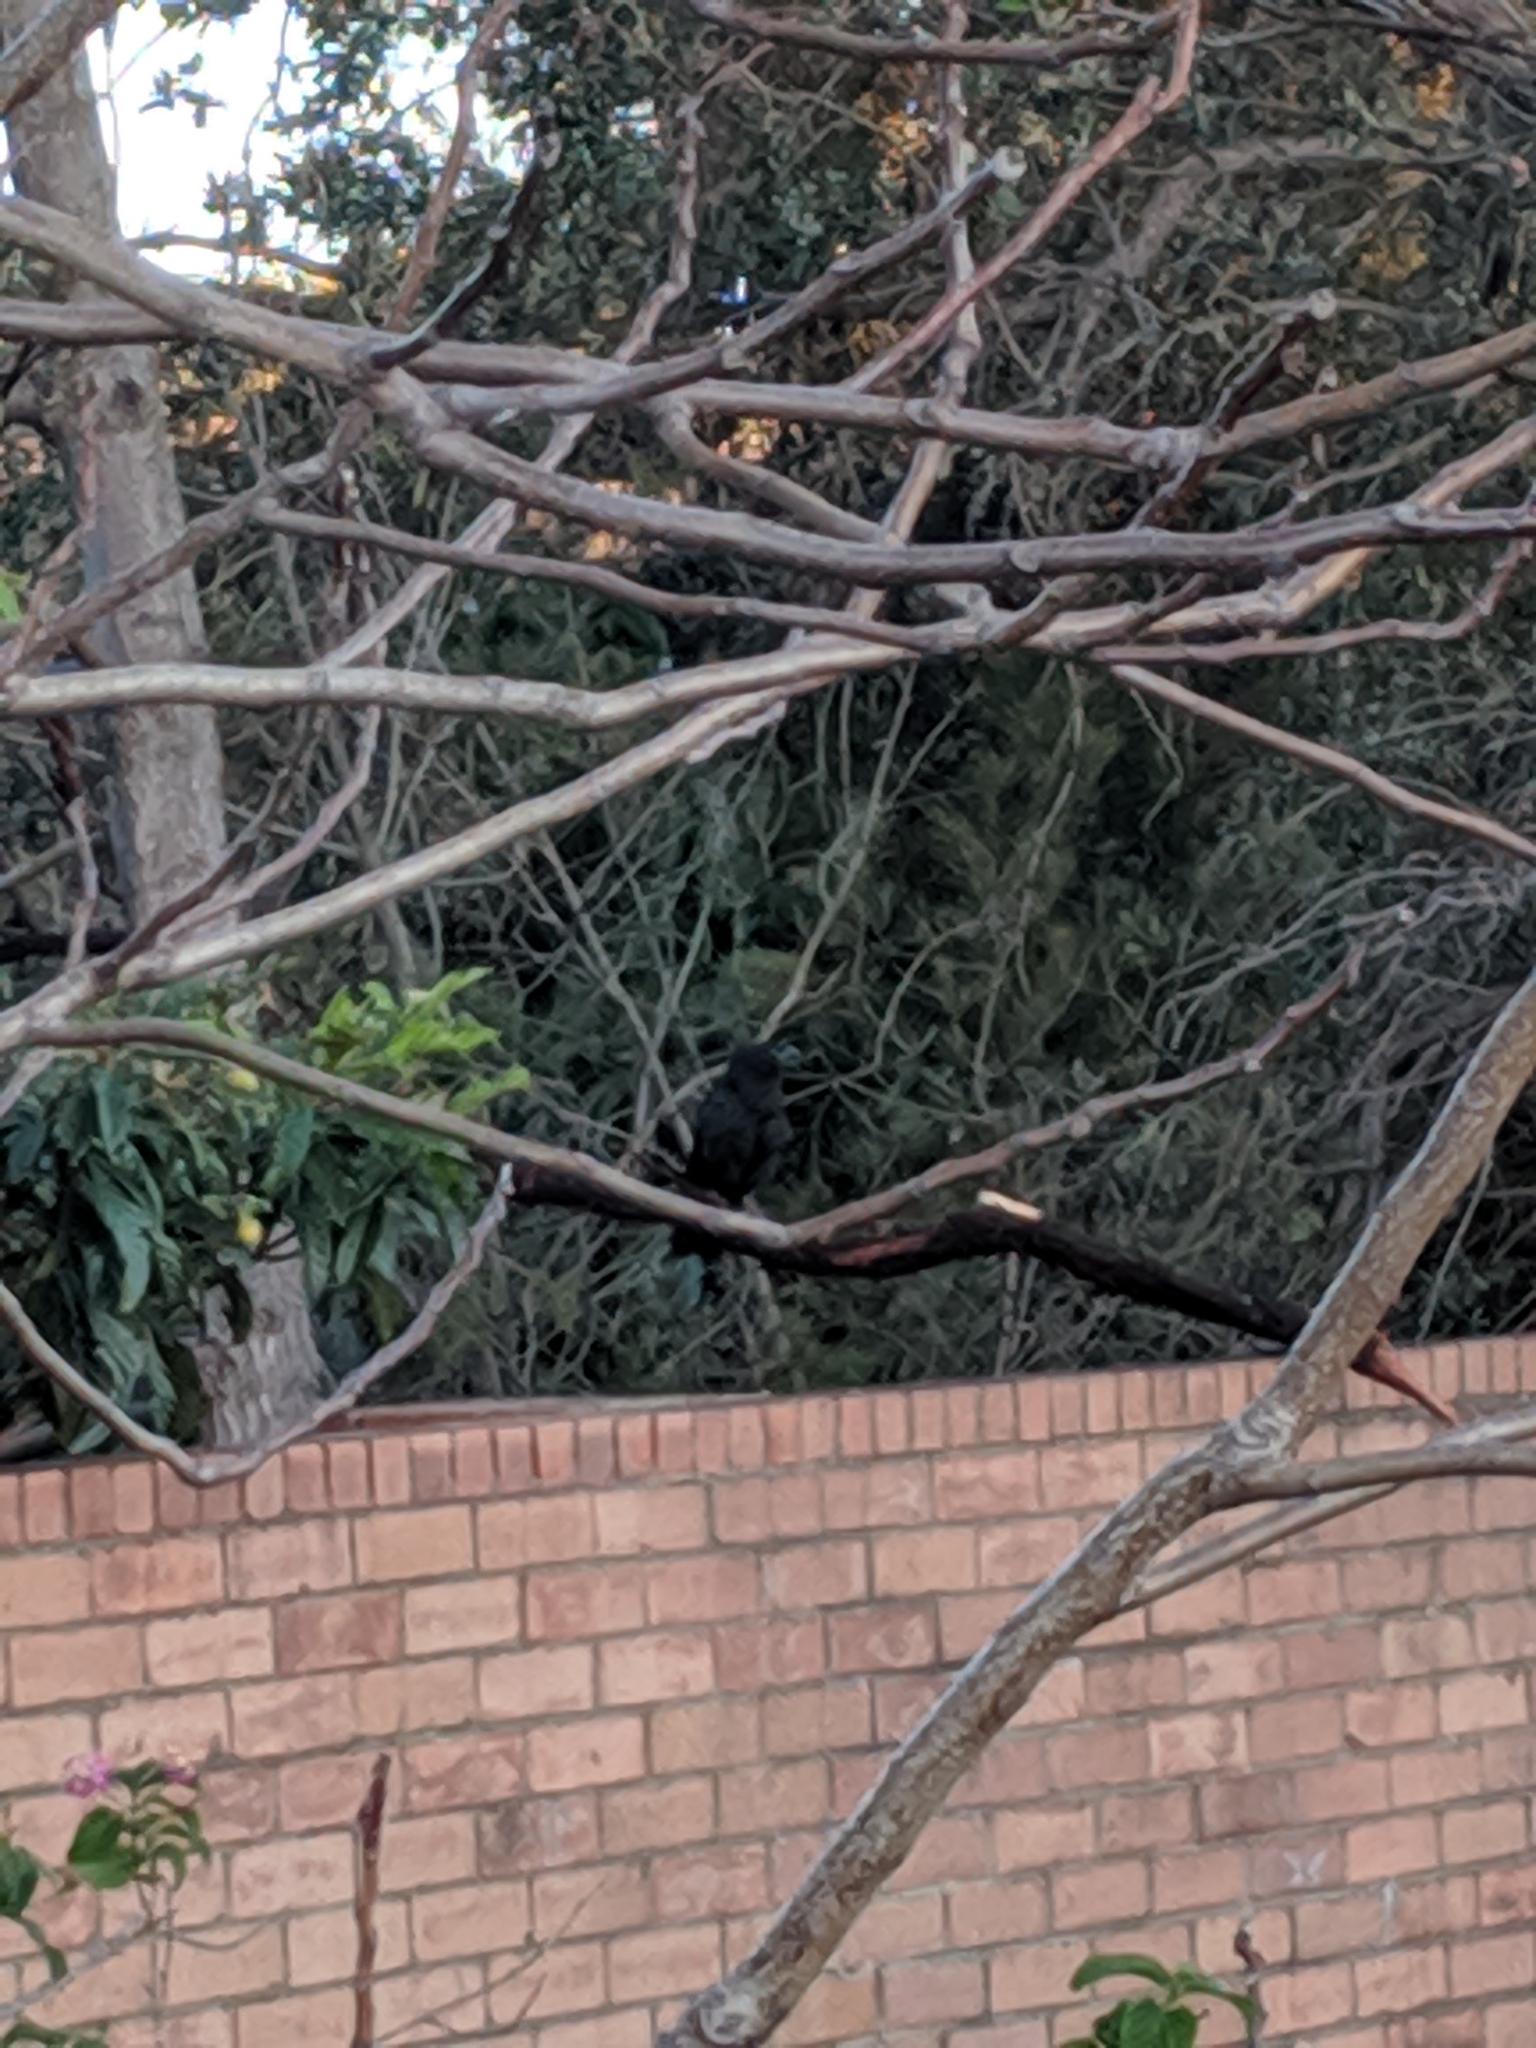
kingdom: Animalia
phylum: Chordata
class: Aves
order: Passeriformes
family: Corvidae
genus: Corvus
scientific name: Corvus coronoides
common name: Australian raven
